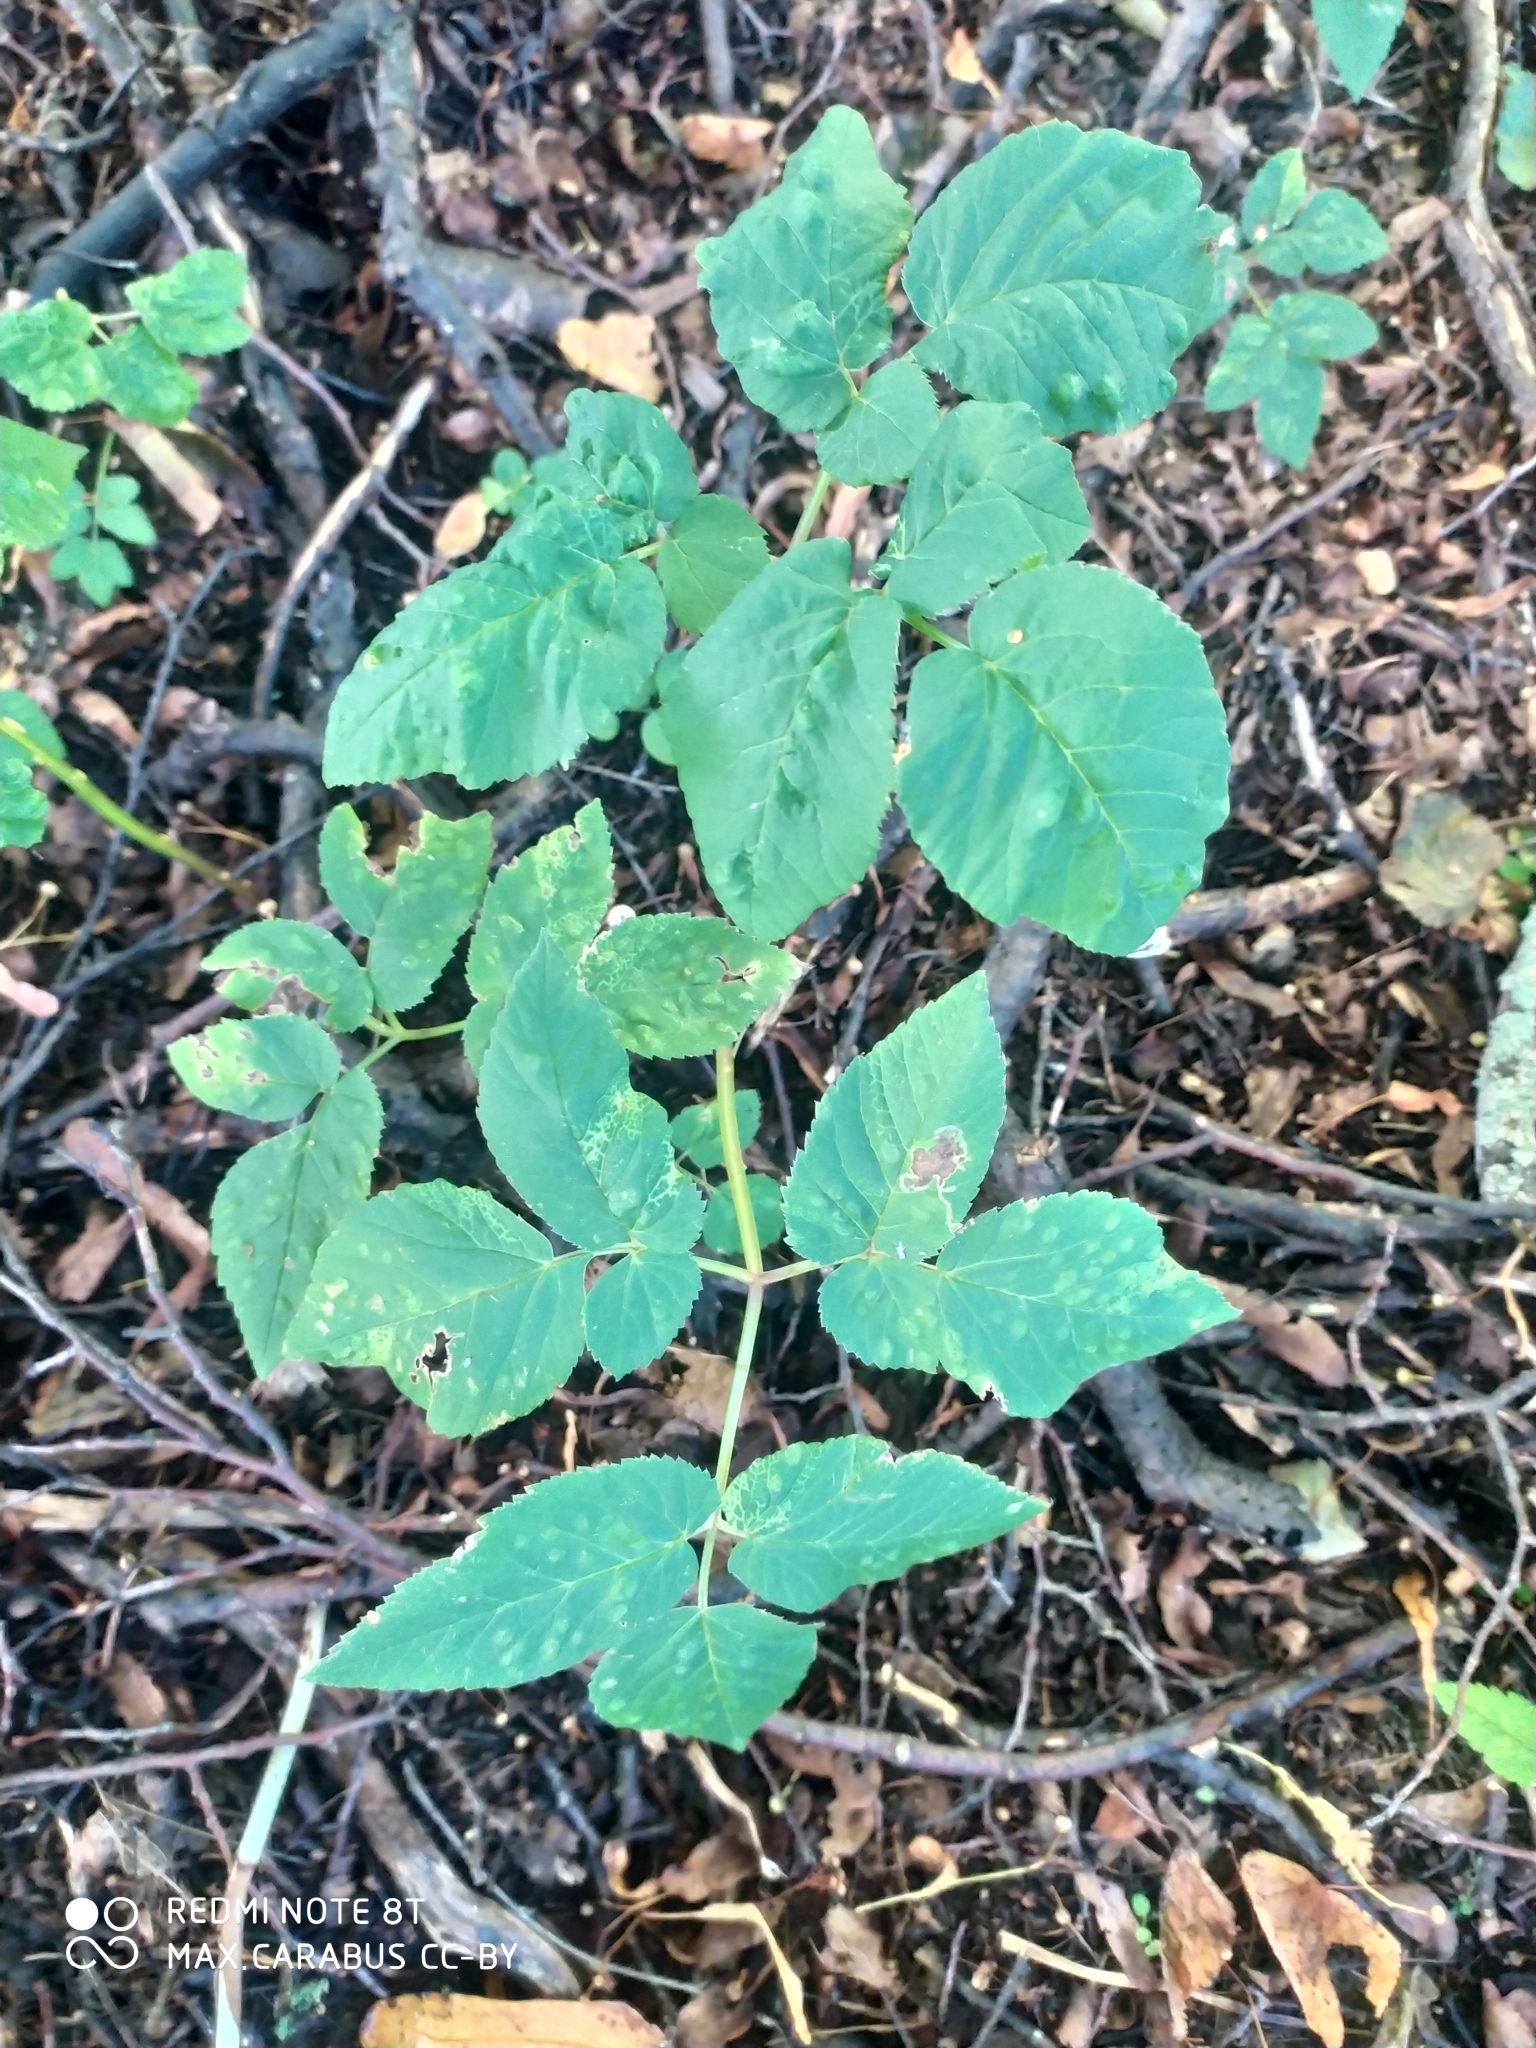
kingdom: Plantae
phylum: Tracheophyta
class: Magnoliopsida
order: Apiales
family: Apiaceae
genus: Aegopodium
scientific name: Aegopodium podagraria
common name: Ground-elder
